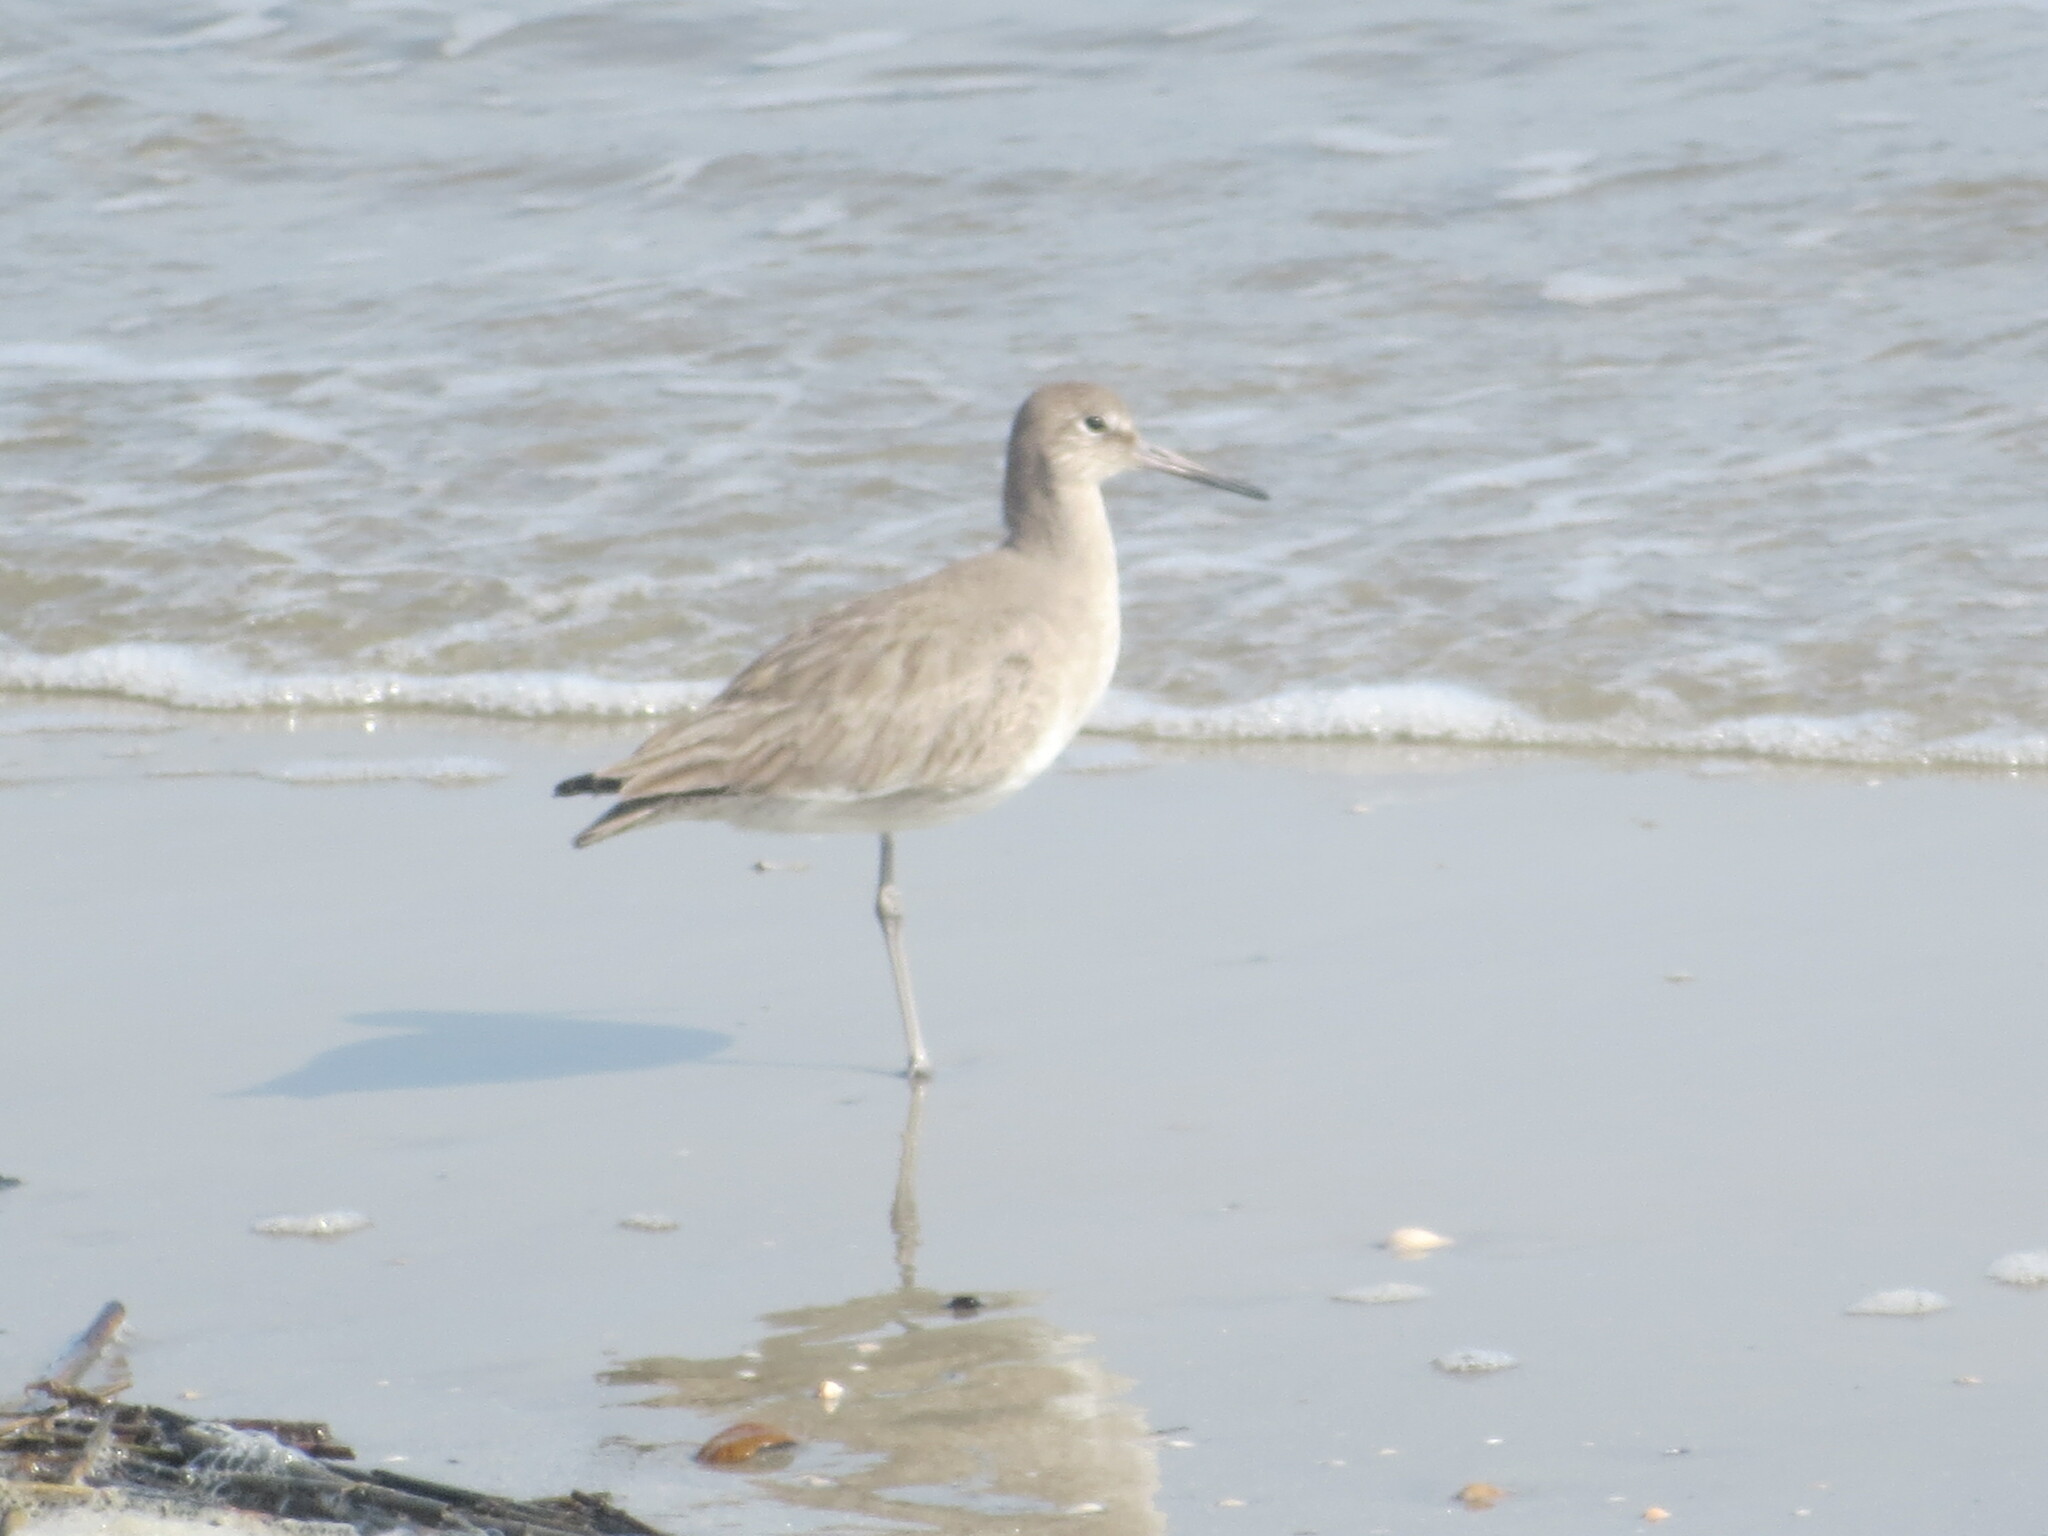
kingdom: Animalia
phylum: Chordata
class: Aves
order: Charadriiformes
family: Scolopacidae
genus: Tringa
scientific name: Tringa semipalmata
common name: Willet
